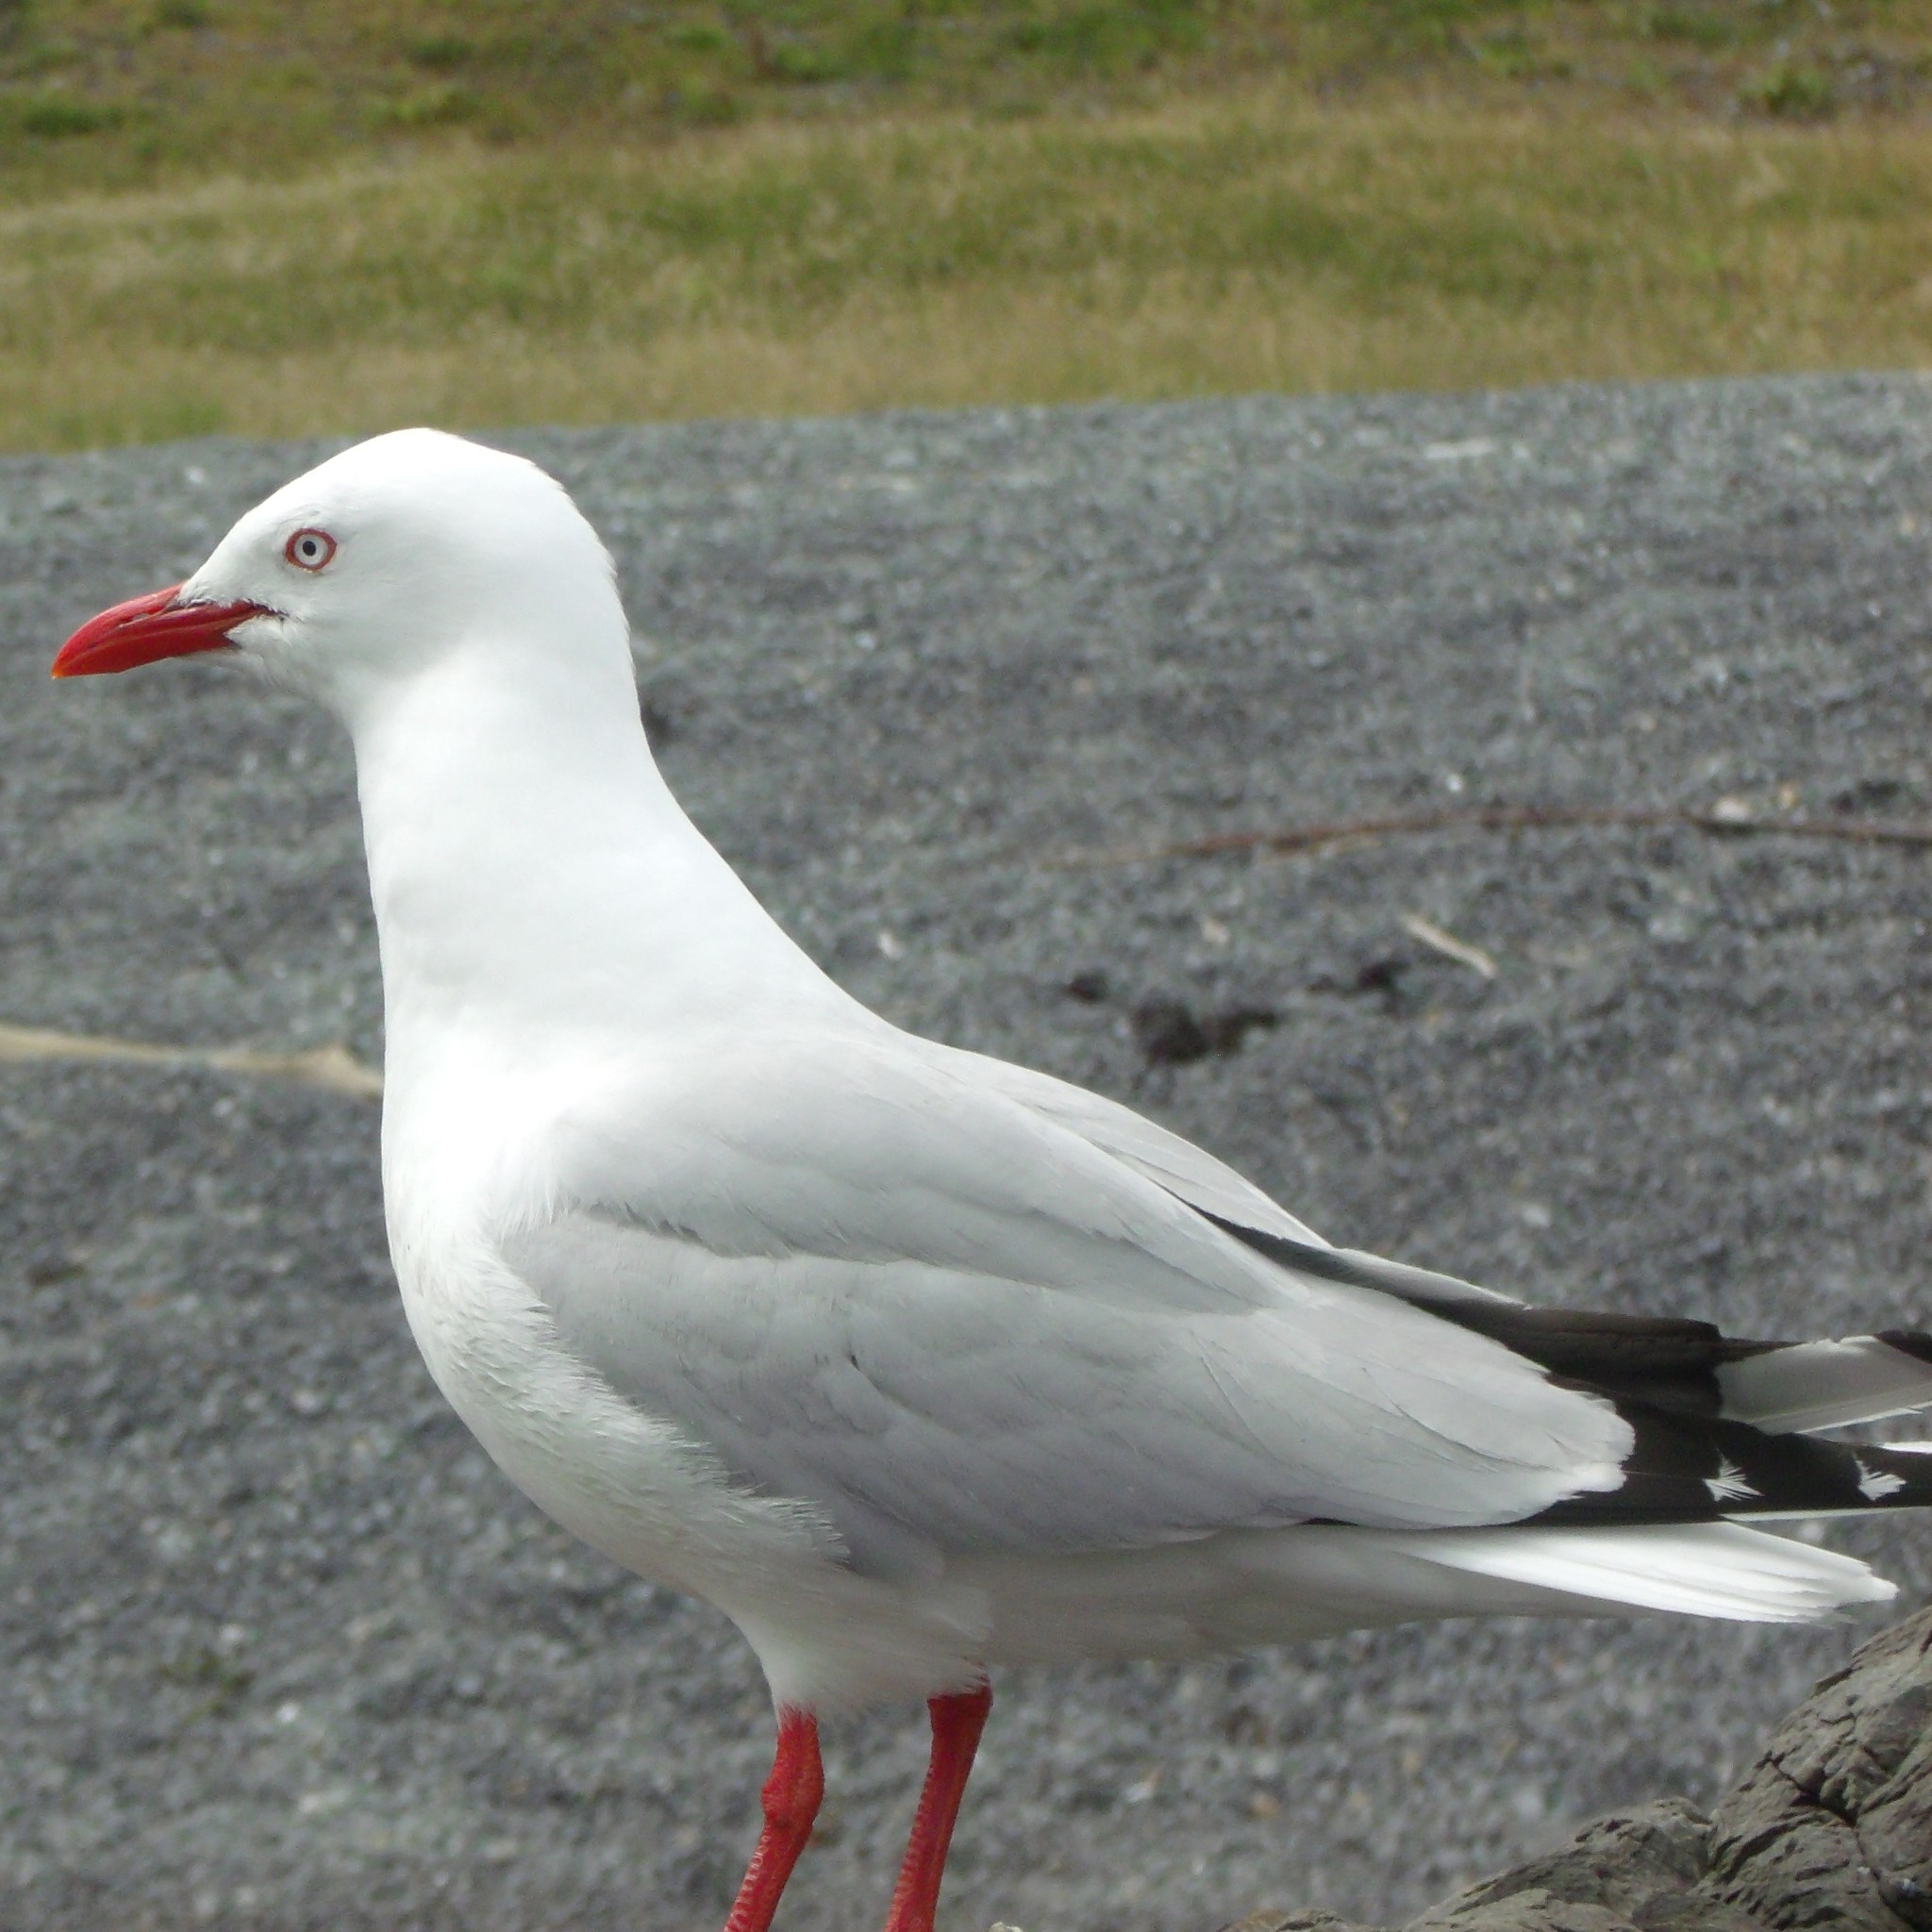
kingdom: Animalia
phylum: Chordata
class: Aves
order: Charadriiformes
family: Laridae
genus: Chroicocephalus
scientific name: Chroicocephalus novaehollandiae
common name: Silver gull
